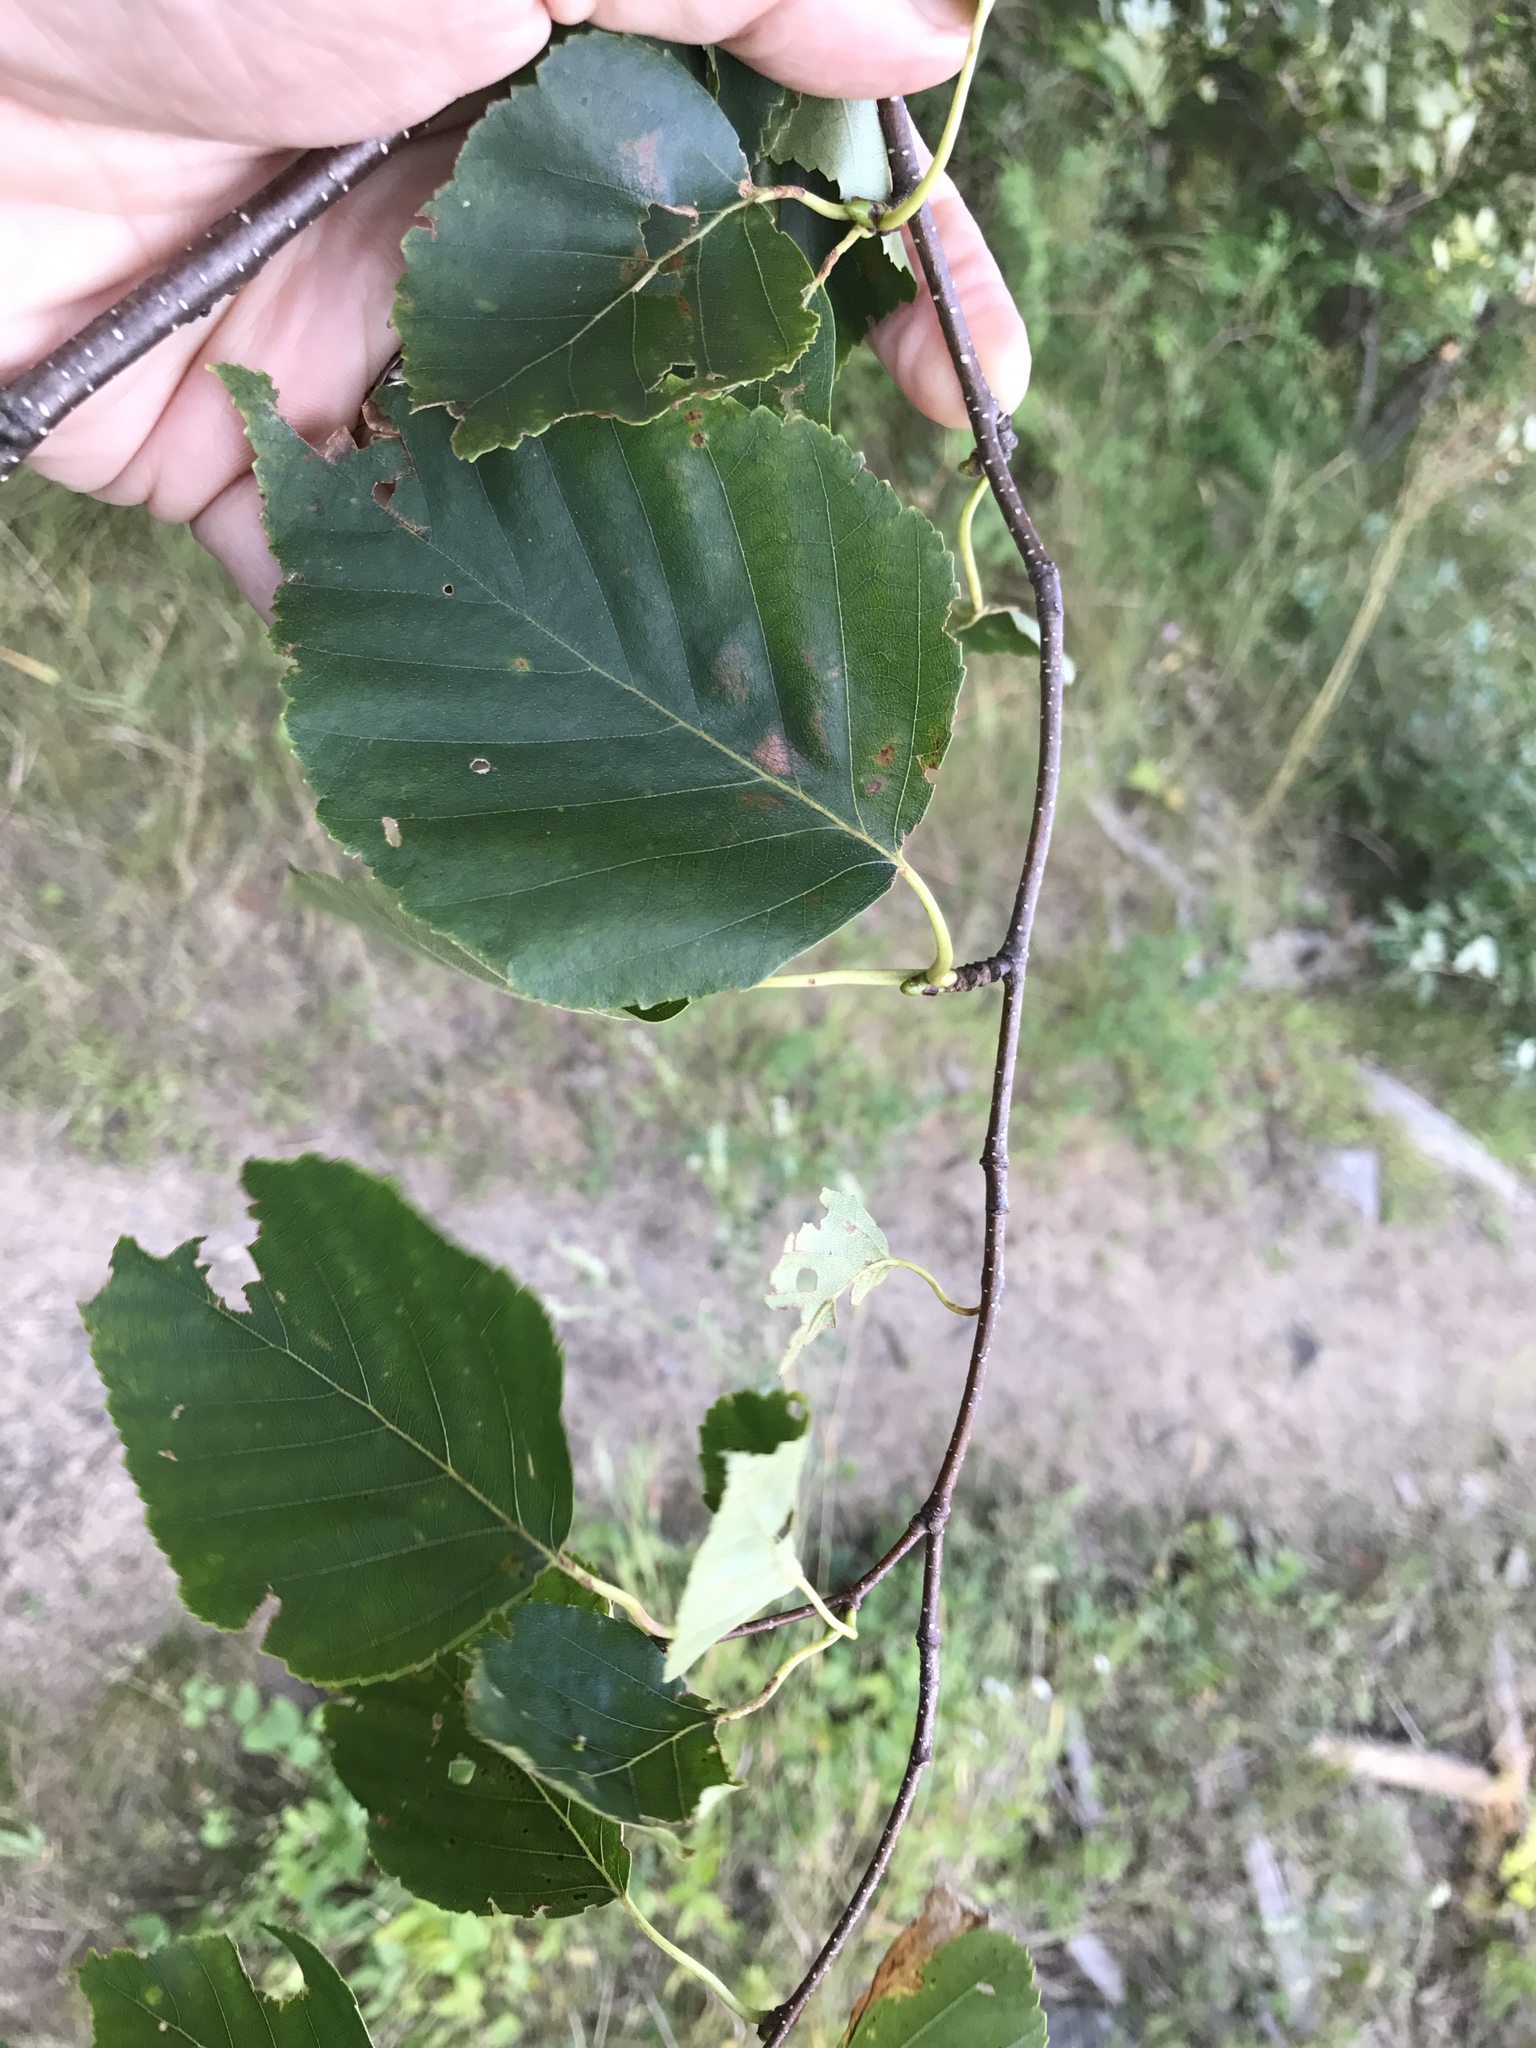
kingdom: Plantae
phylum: Tracheophyta
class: Magnoliopsida
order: Fagales
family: Betulaceae
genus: Betula
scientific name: Betula papyrifera
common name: Paper birch
